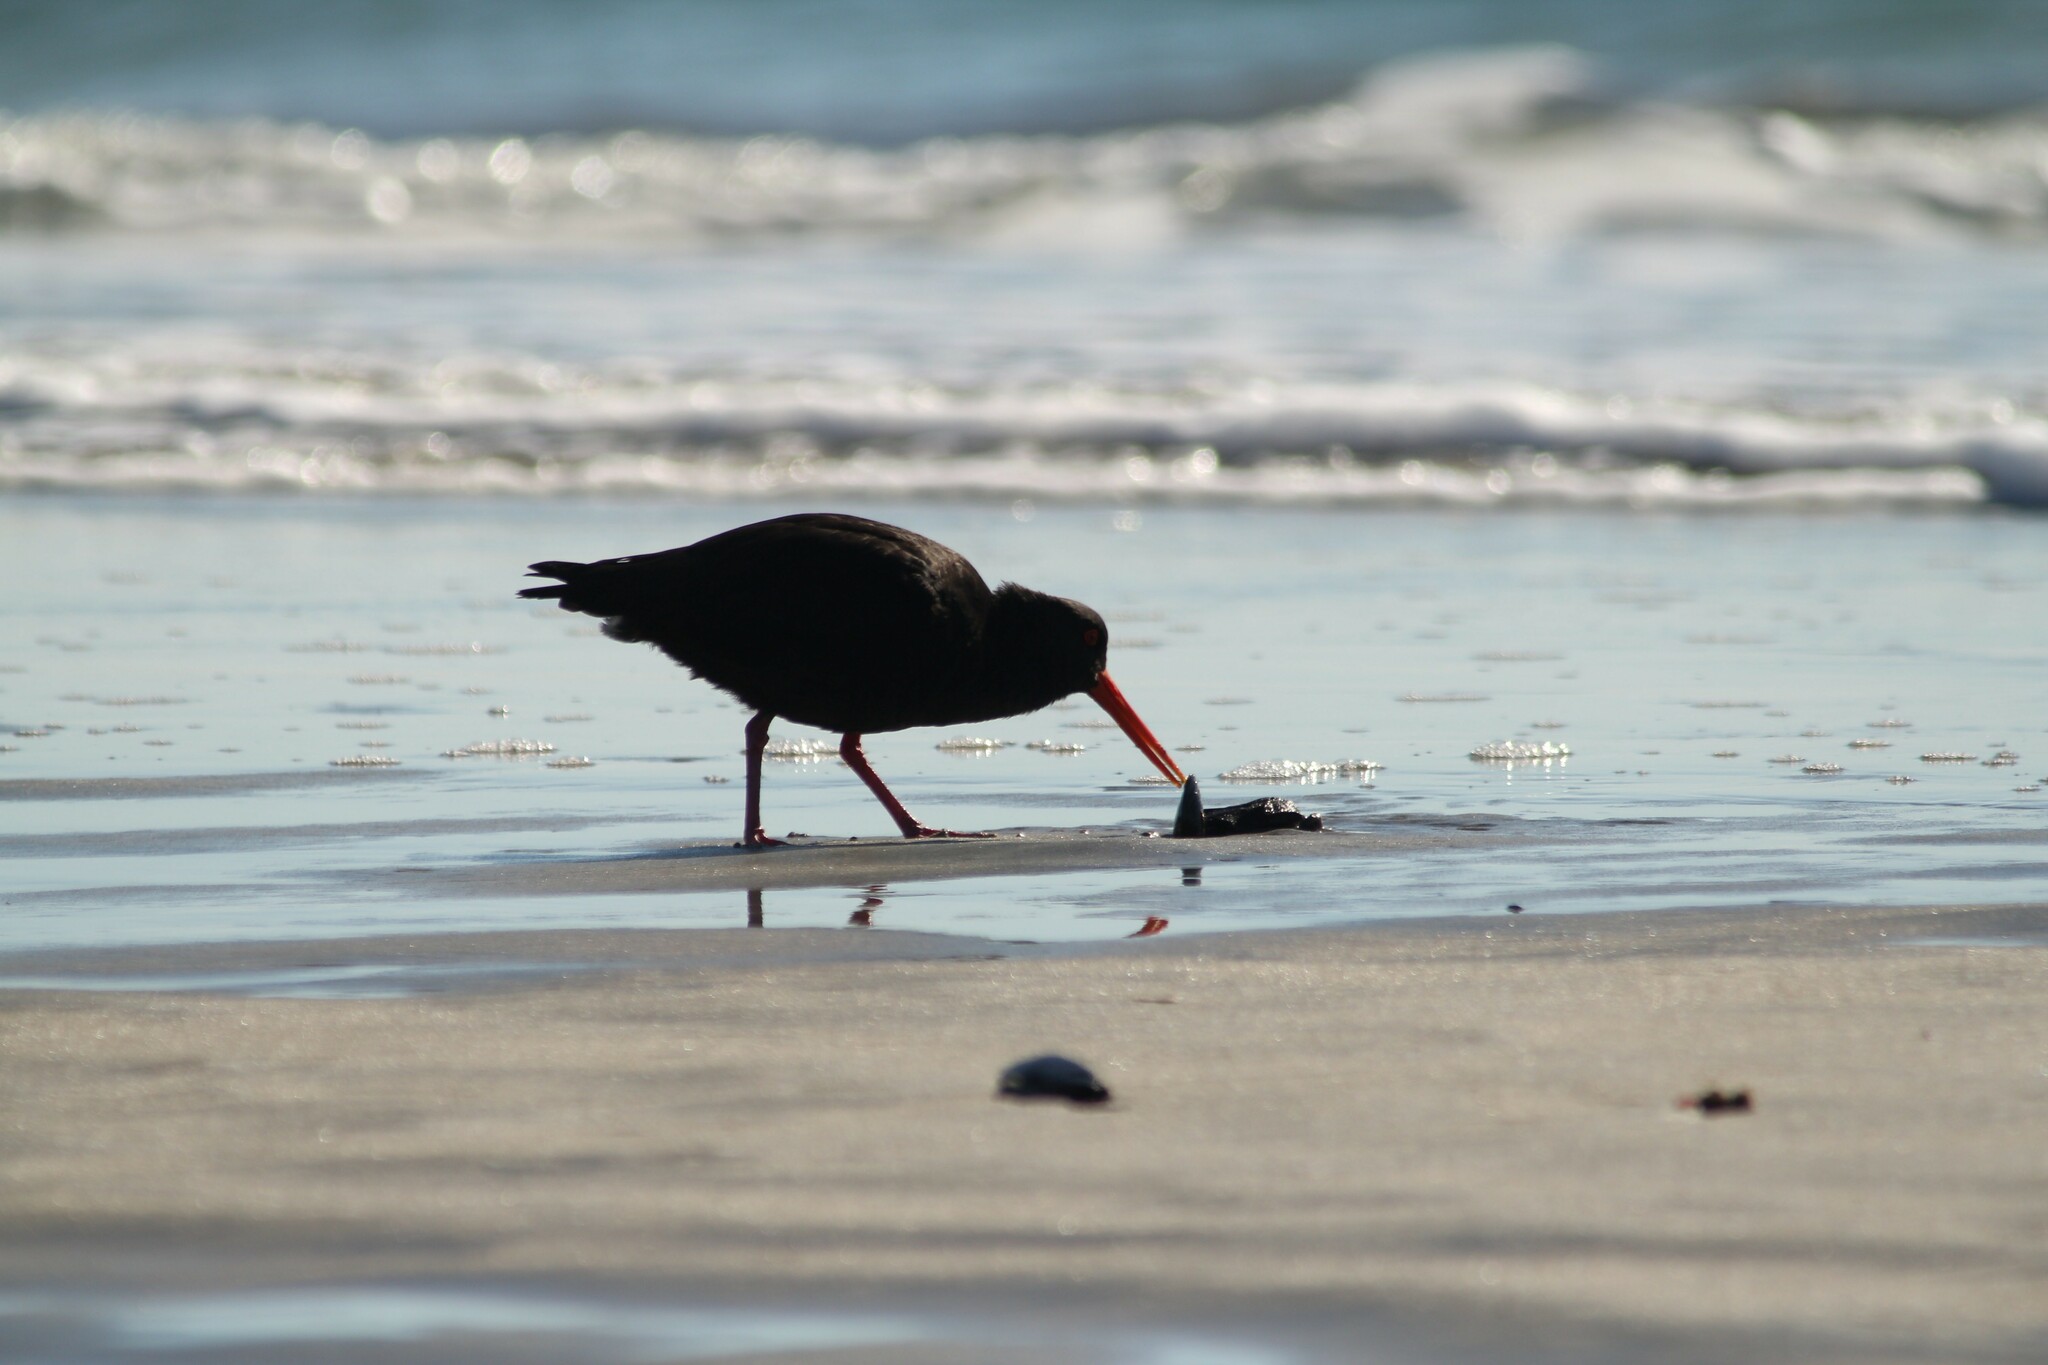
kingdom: Animalia
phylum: Chordata
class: Aves
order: Charadriiformes
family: Haematopodidae
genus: Haematopus
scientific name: Haematopus unicolor
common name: Variable oystercatcher
